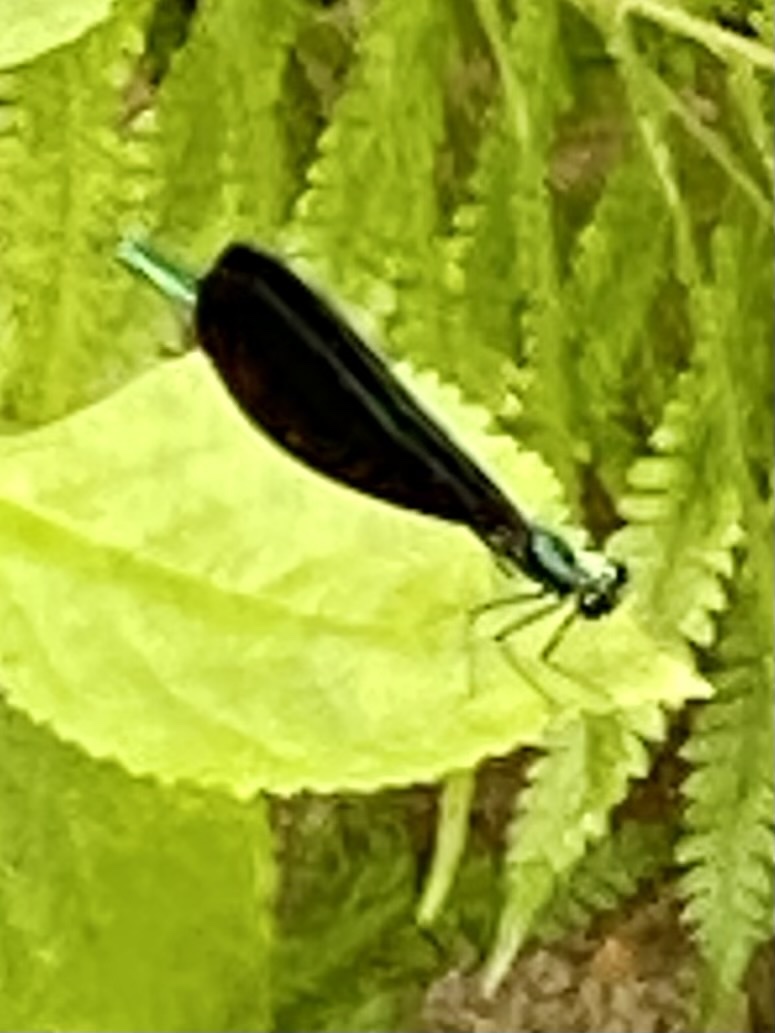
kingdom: Animalia
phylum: Arthropoda
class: Insecta
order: Odonata
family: Calopterygidae
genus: Calopteryx
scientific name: Calopteryx maculata
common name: Ebony jewelwing
